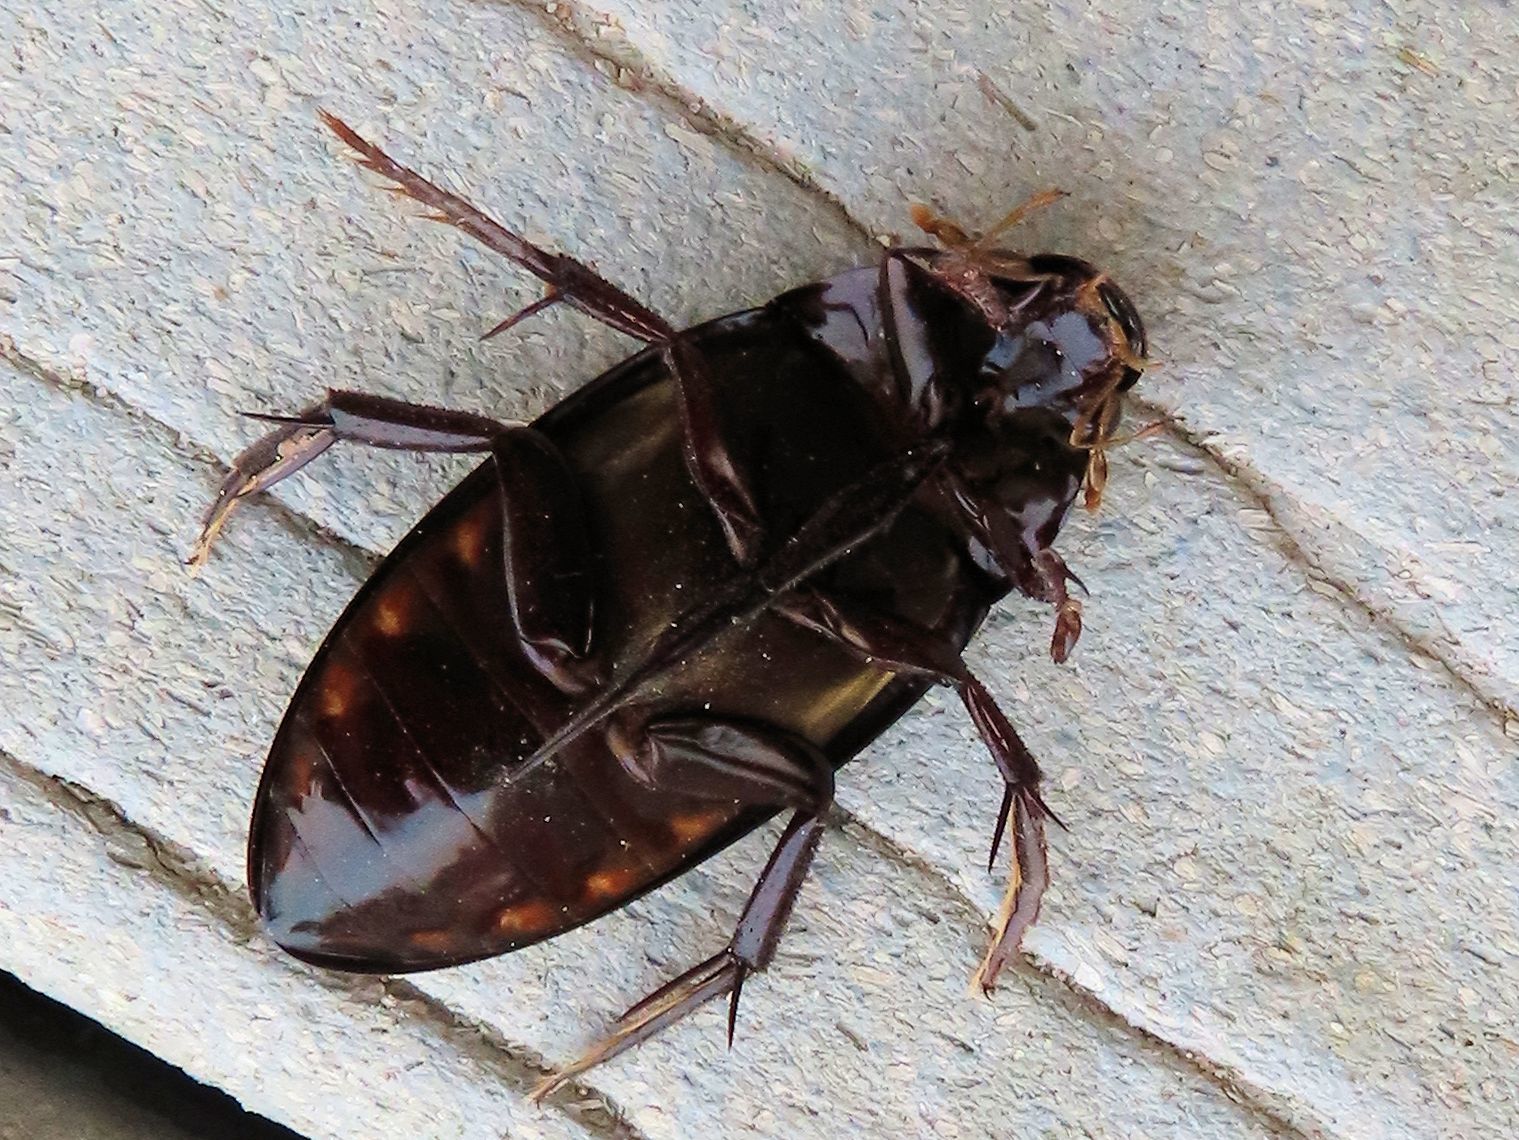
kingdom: Animalia
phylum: Arthropoda
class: Insecta
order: Coleoptera
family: Hydrophilidae
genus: Hydrophilus
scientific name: Hydrophilus triangularis
